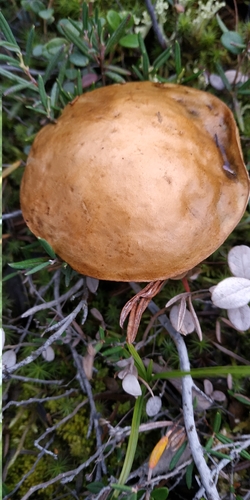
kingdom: Fungi
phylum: Basidiomycota
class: Agaricomycetes
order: Boletales
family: Boletaceae
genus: Leccinum
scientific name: Leccinum
